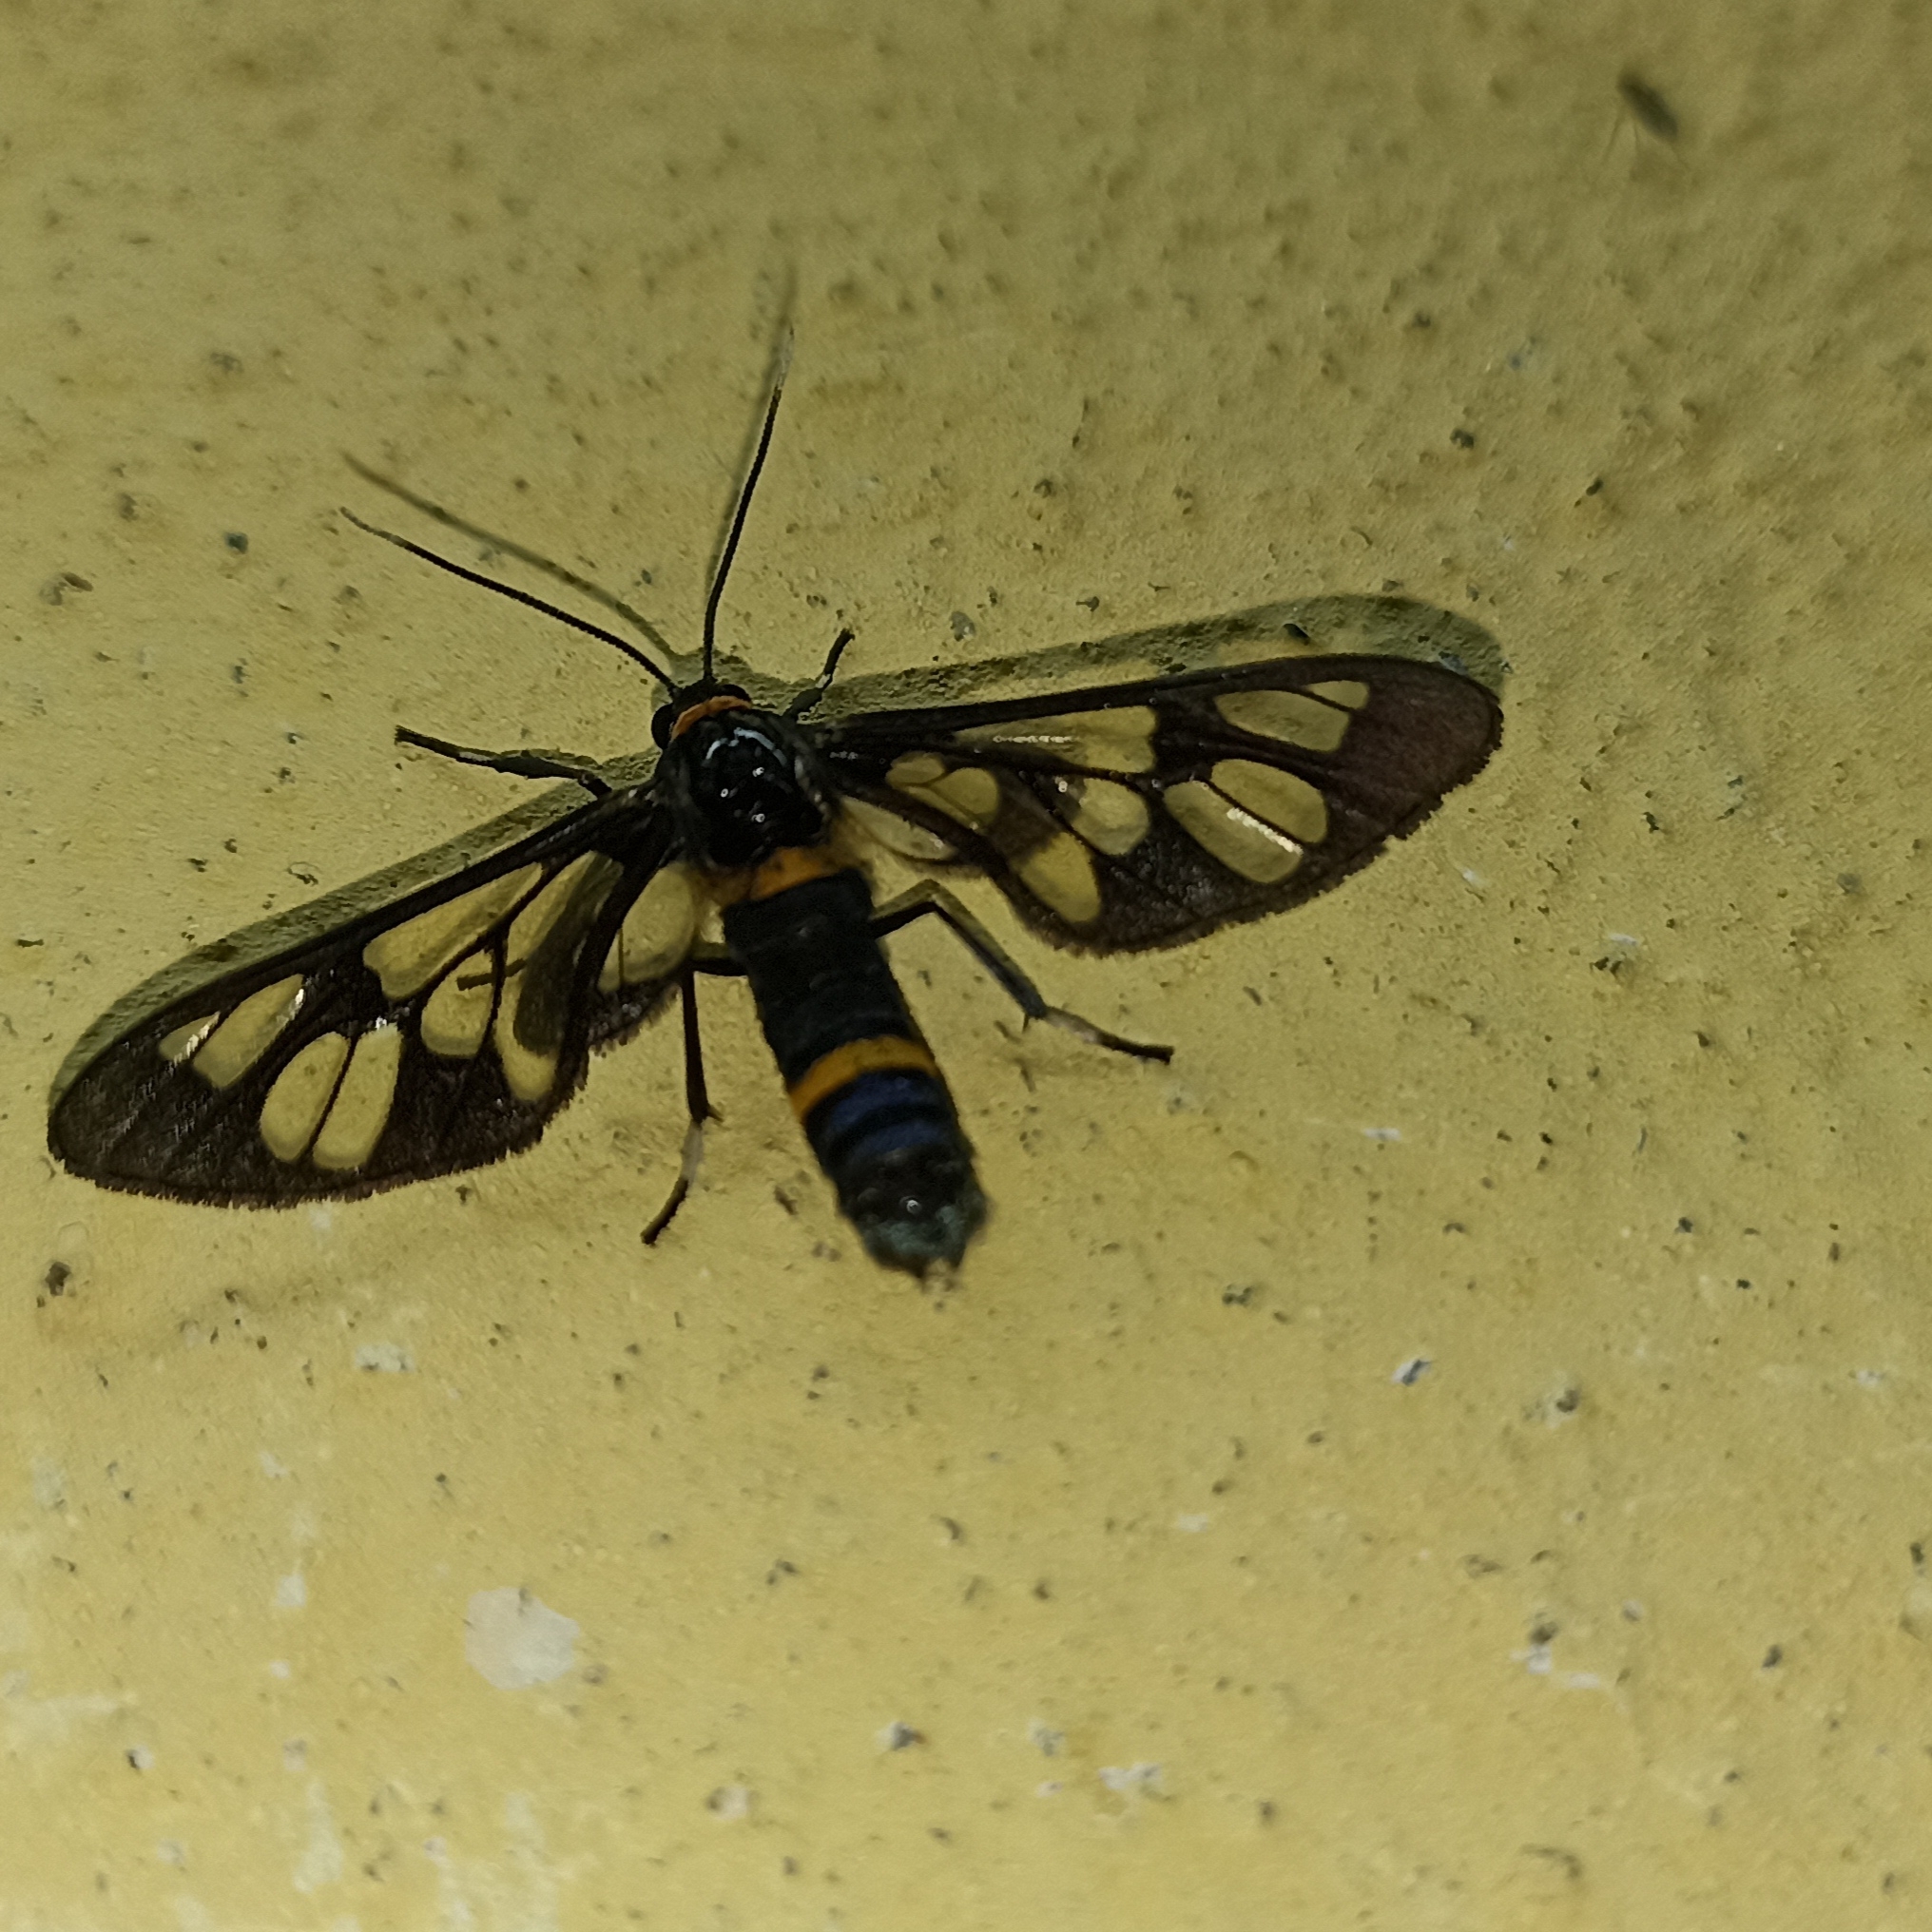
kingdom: Animalia
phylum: Arthropoda
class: Insecta
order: Lepidoptera
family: Erebidae
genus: Syntomoides
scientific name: Syntomoides imaon
